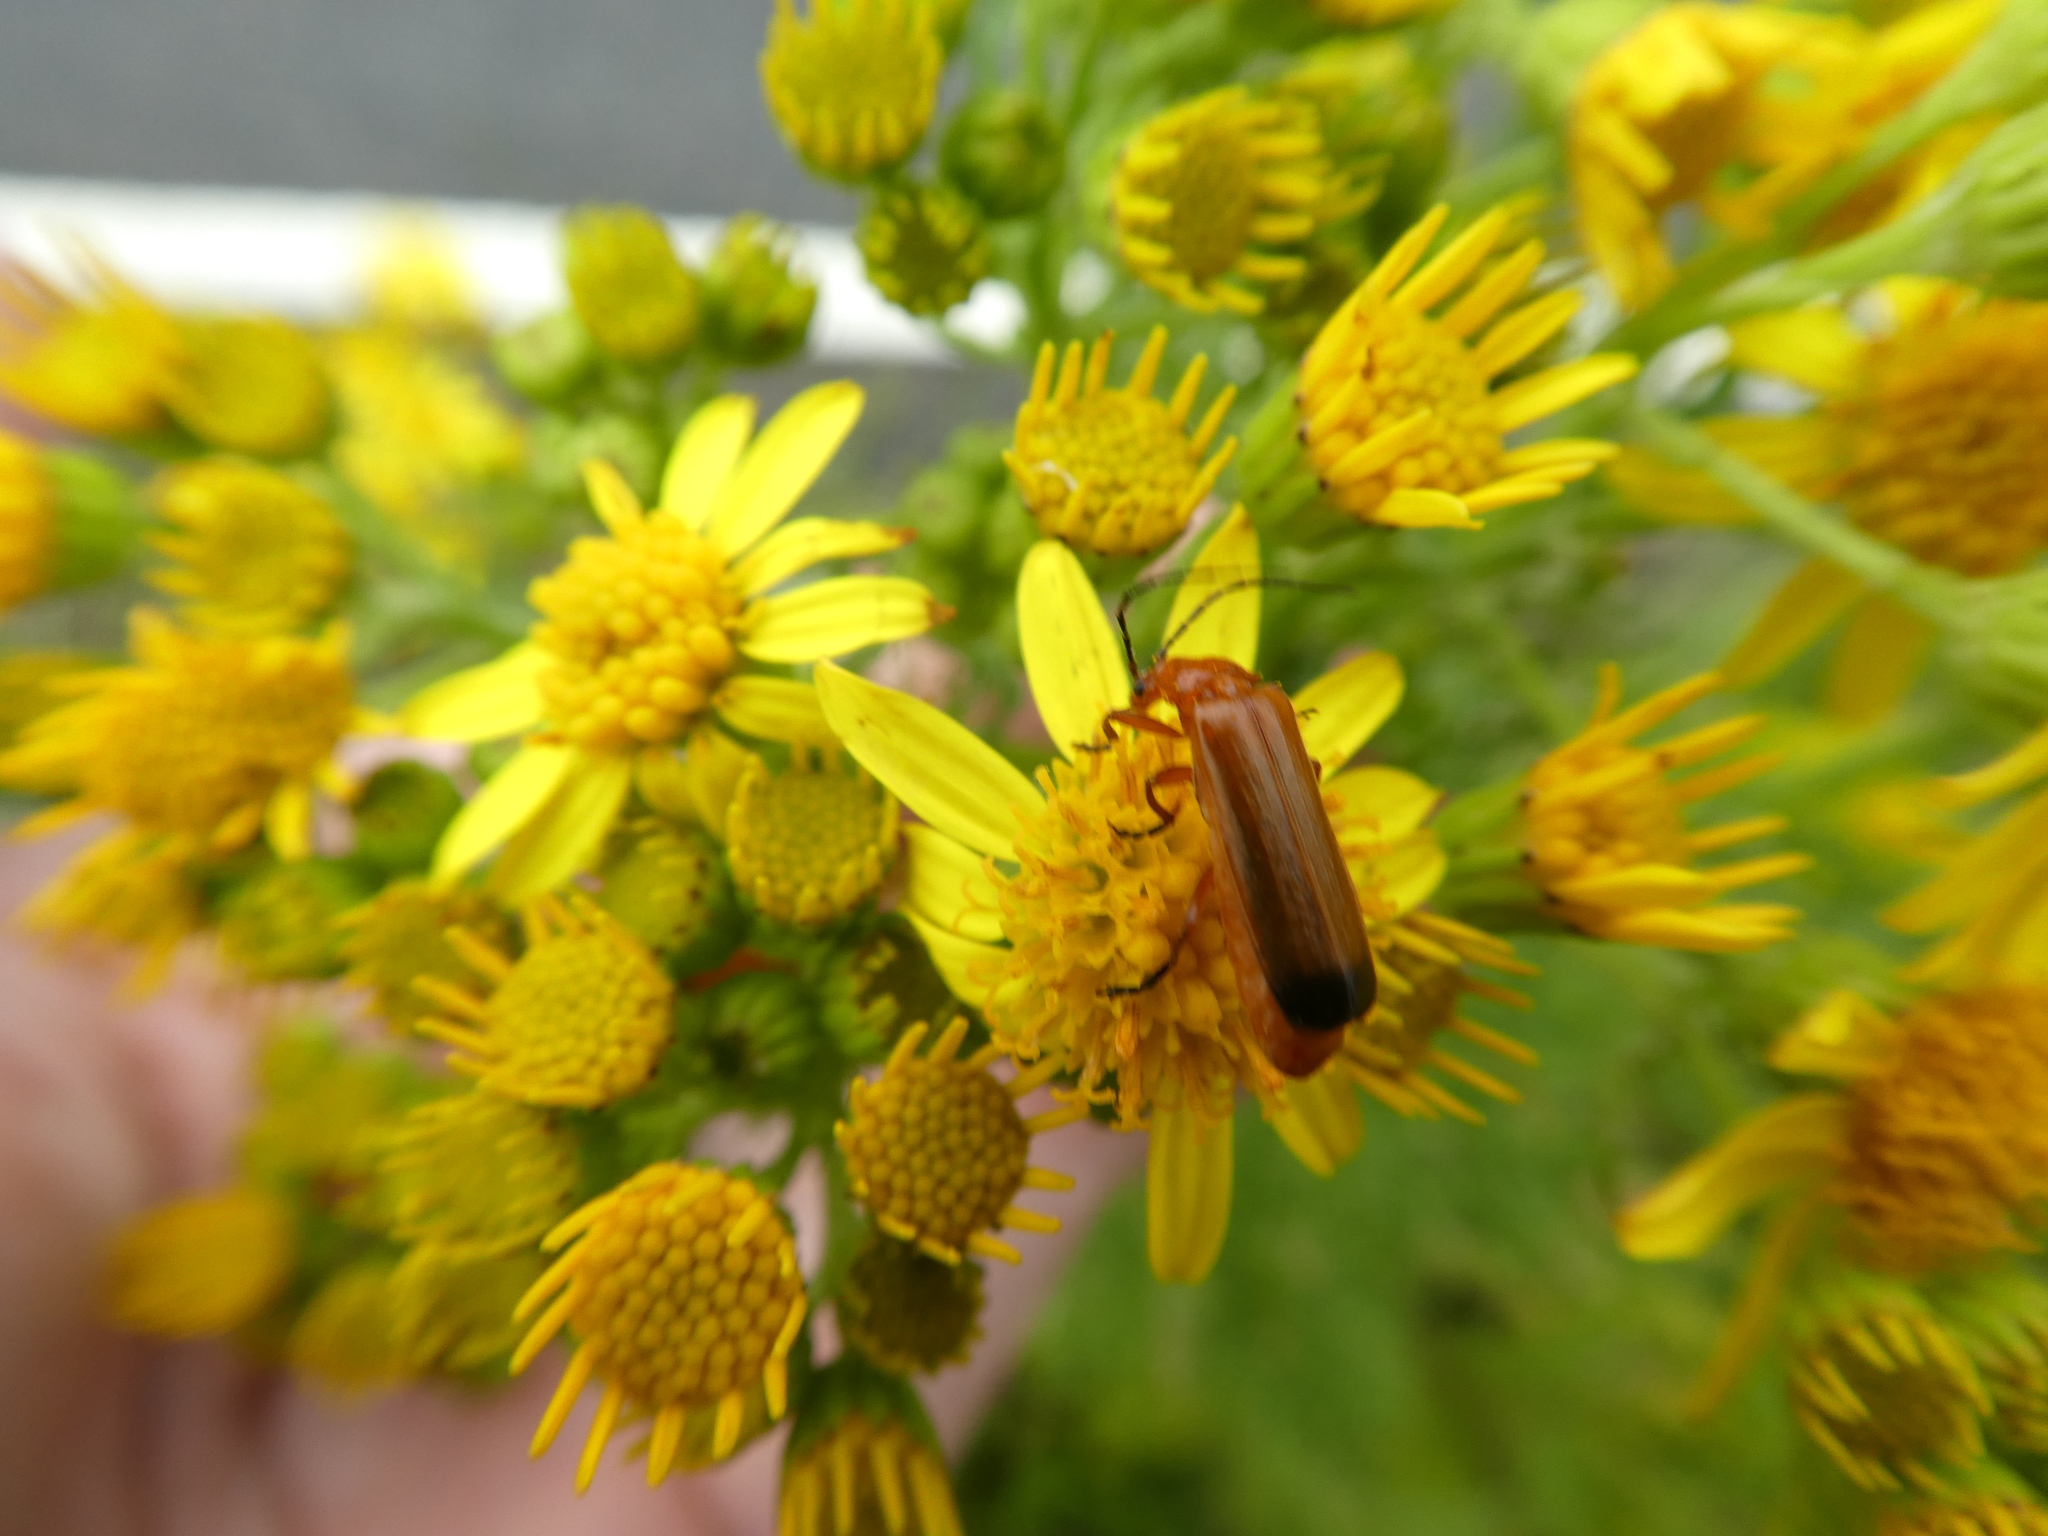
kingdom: Animalia
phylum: Arthropoda
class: Insecta
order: Coleoptera
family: Cantharidae
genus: Rhagonycha
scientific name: Rhagonycha fulva
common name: Common red soldier beetle
